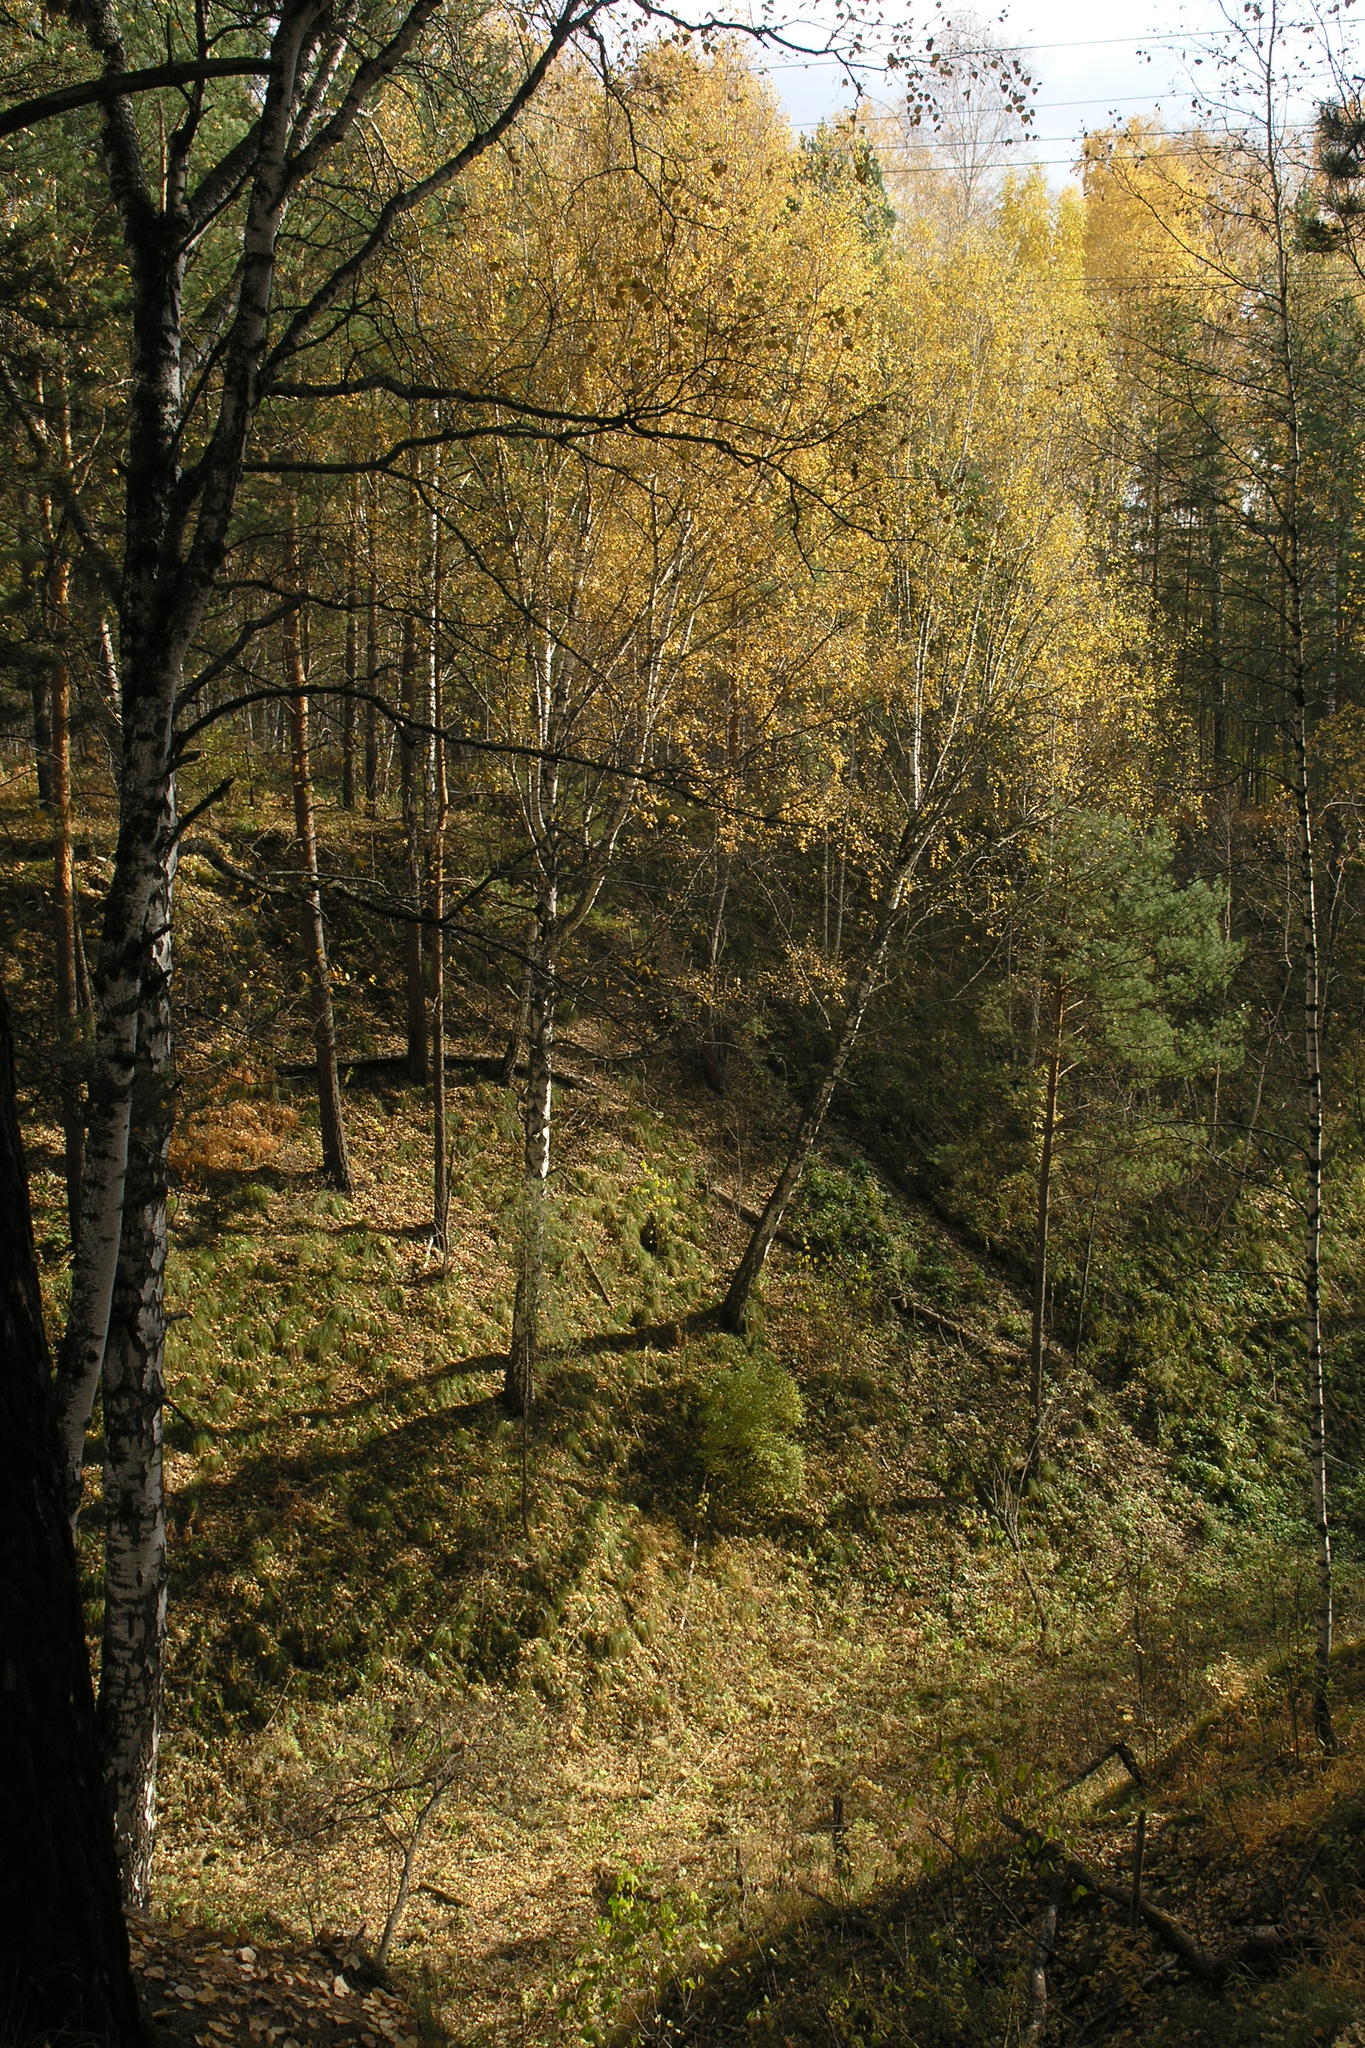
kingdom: Plantae
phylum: Tracheophyta
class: Magnoliopsida
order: Fagales
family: Betulaceae
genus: Betula
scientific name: Betula pendula
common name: Silver birch
